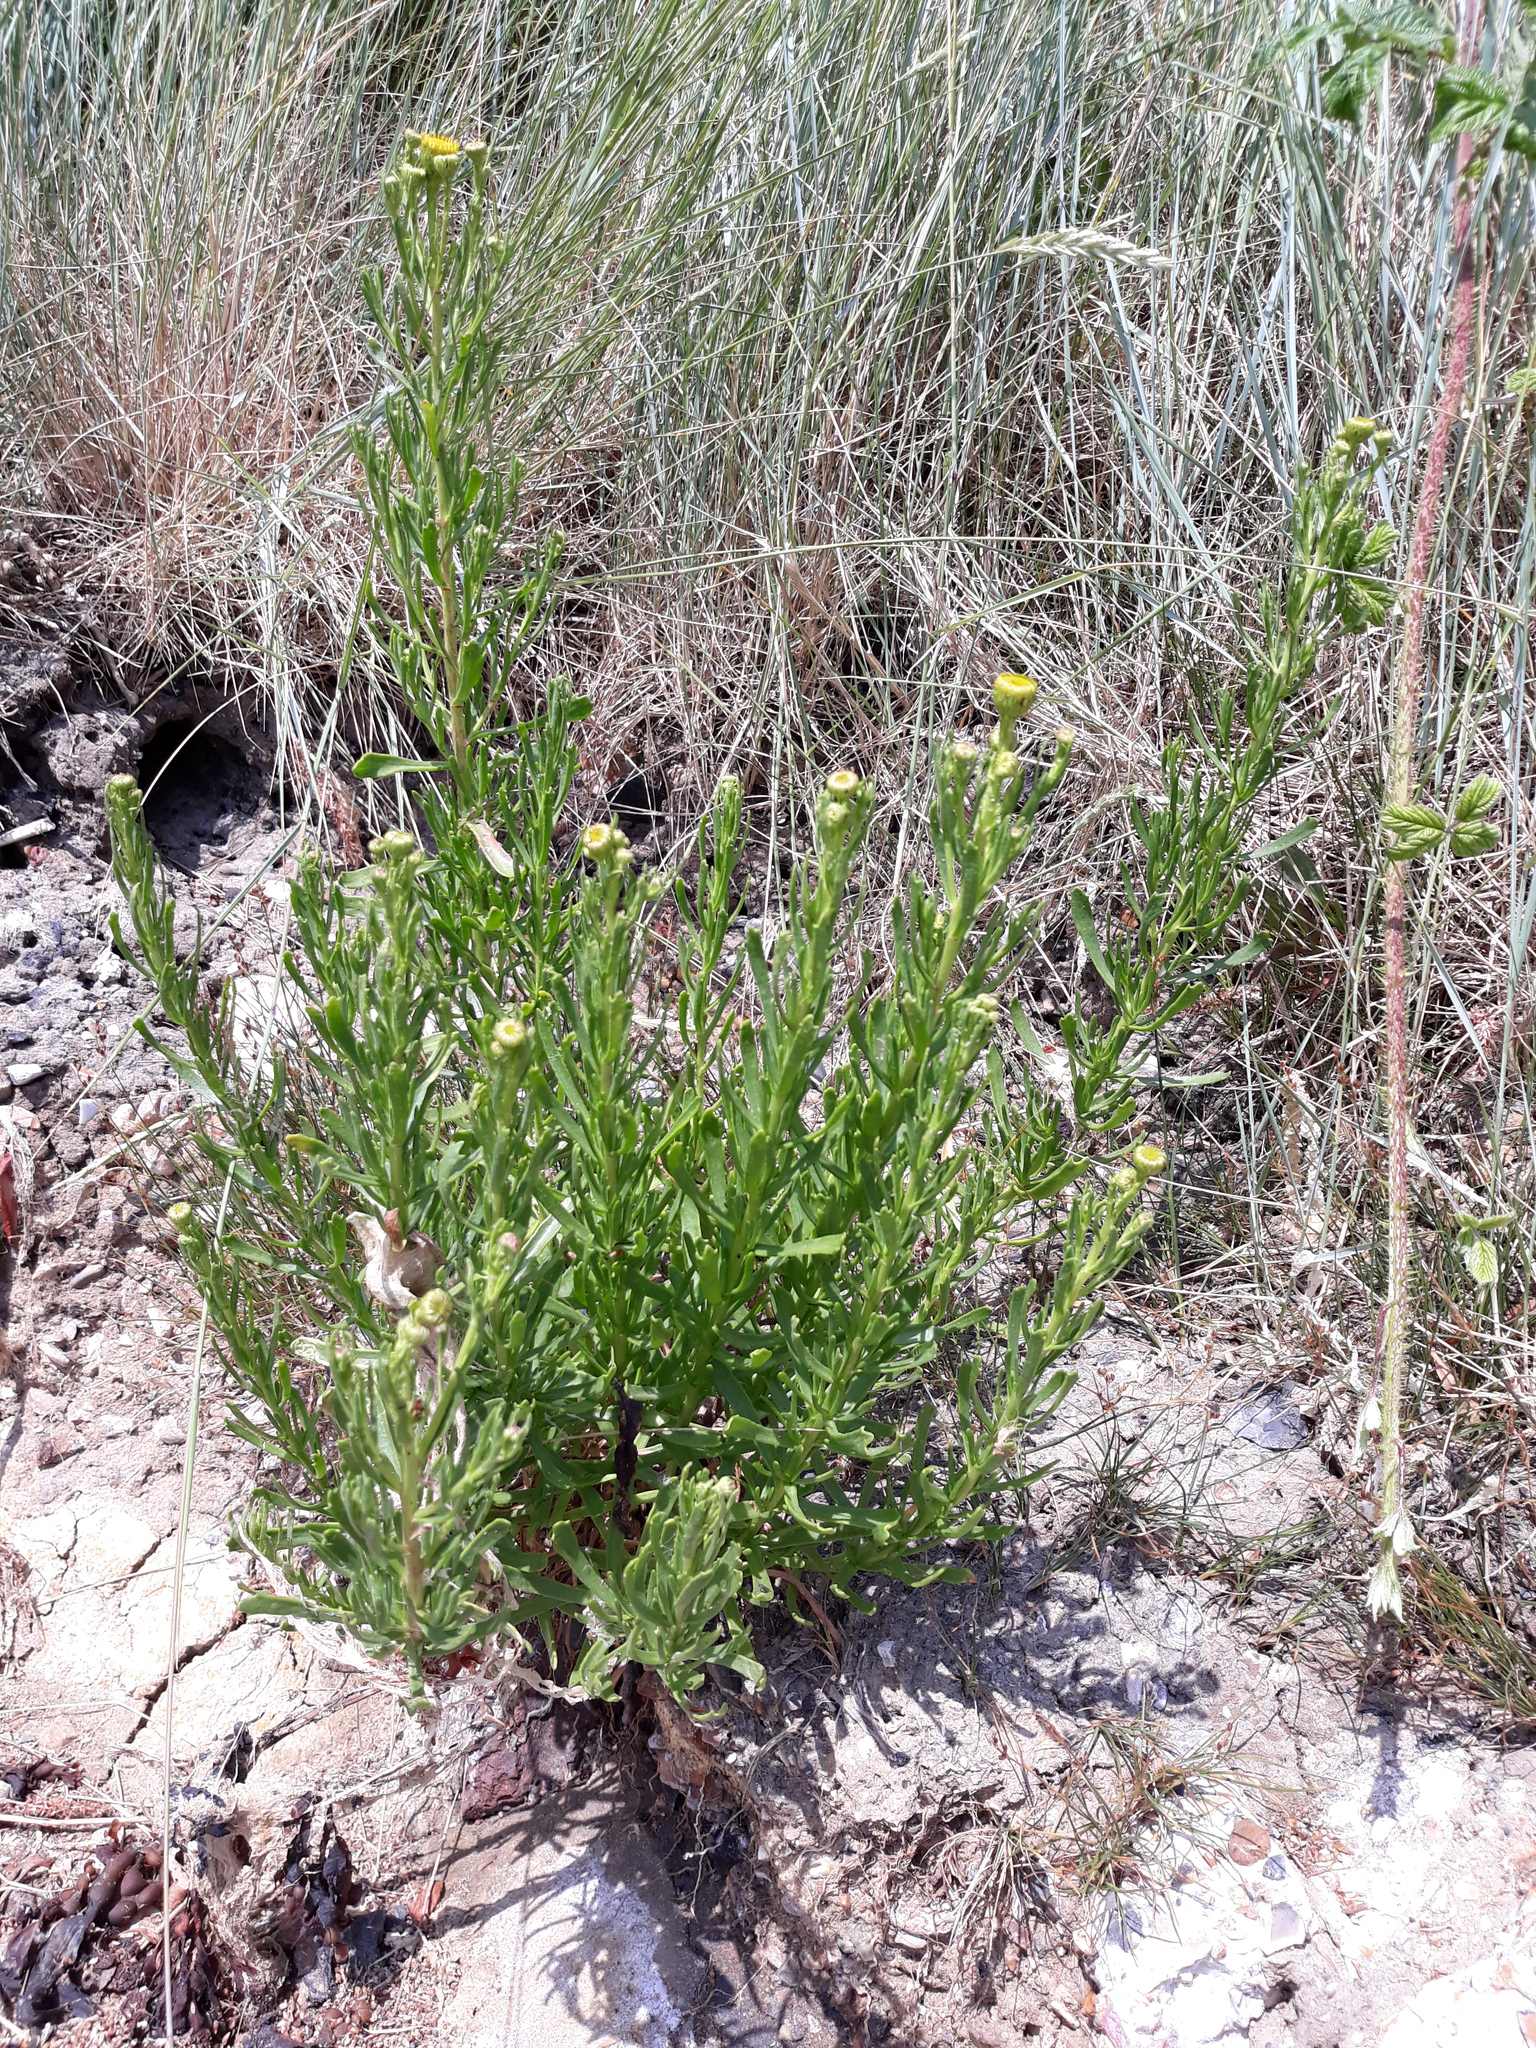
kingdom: Plantae
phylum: Tracheophyta
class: Magnoliopsida
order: Asterales
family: Asteraceae
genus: Limbarda
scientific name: Limbarda crithmoides
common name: Golden samphire
